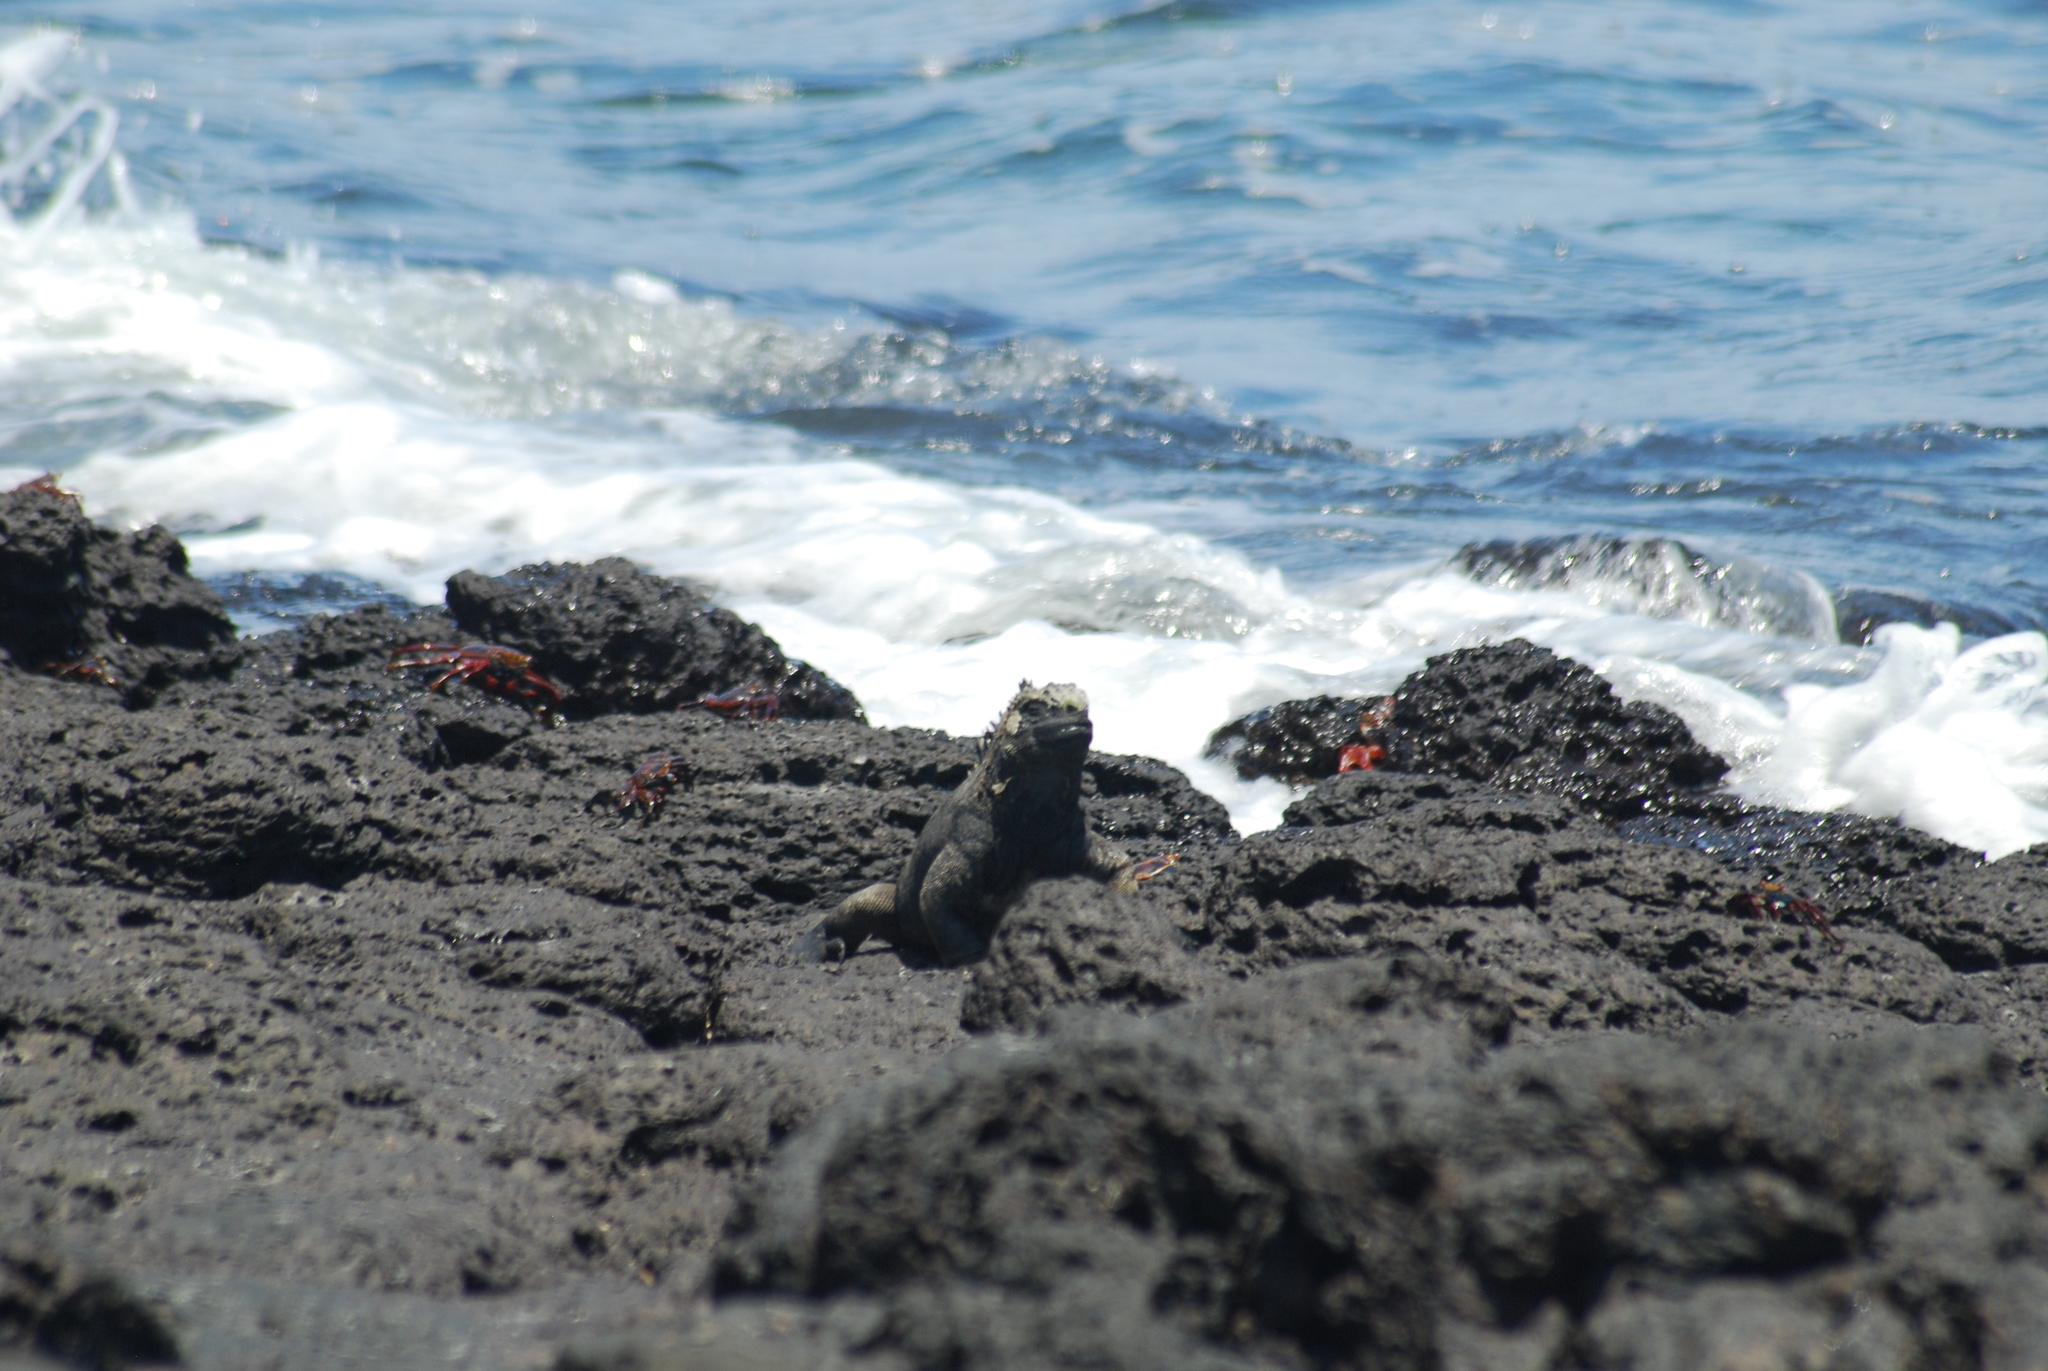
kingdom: Animalia
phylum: Chordata
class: Squamata
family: Iguanidae
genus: Amblyrhynchus
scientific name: Amblyrhynchus cristatus
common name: Marine iguana
